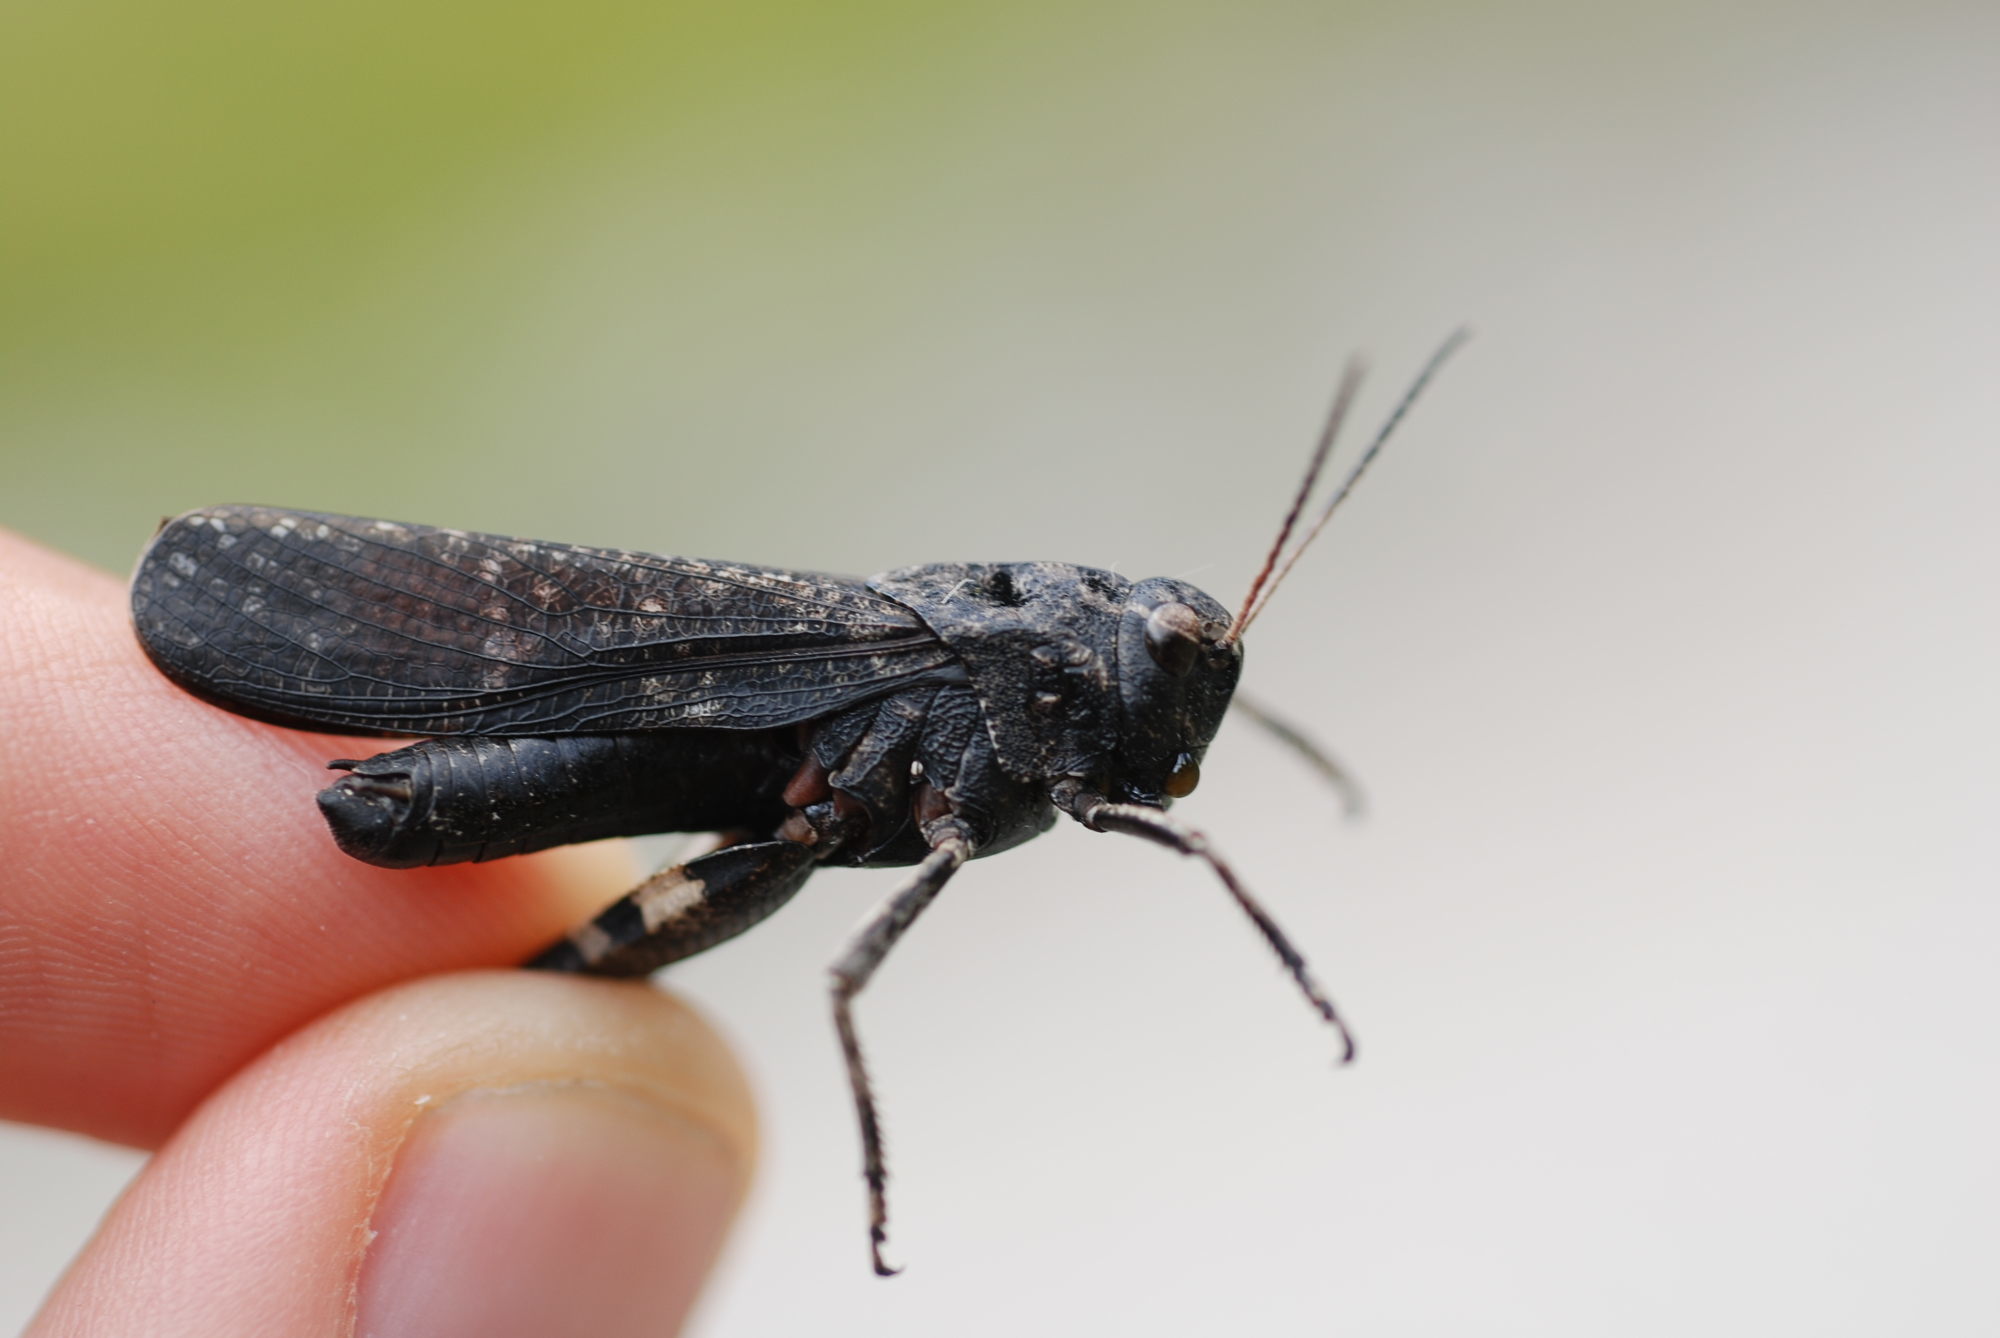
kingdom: Animalia
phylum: Arthropoda
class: Insecta
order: Orthoptera
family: Acrididae
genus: Psophus
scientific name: Psophus stridulus
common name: Rattle grasshopper
